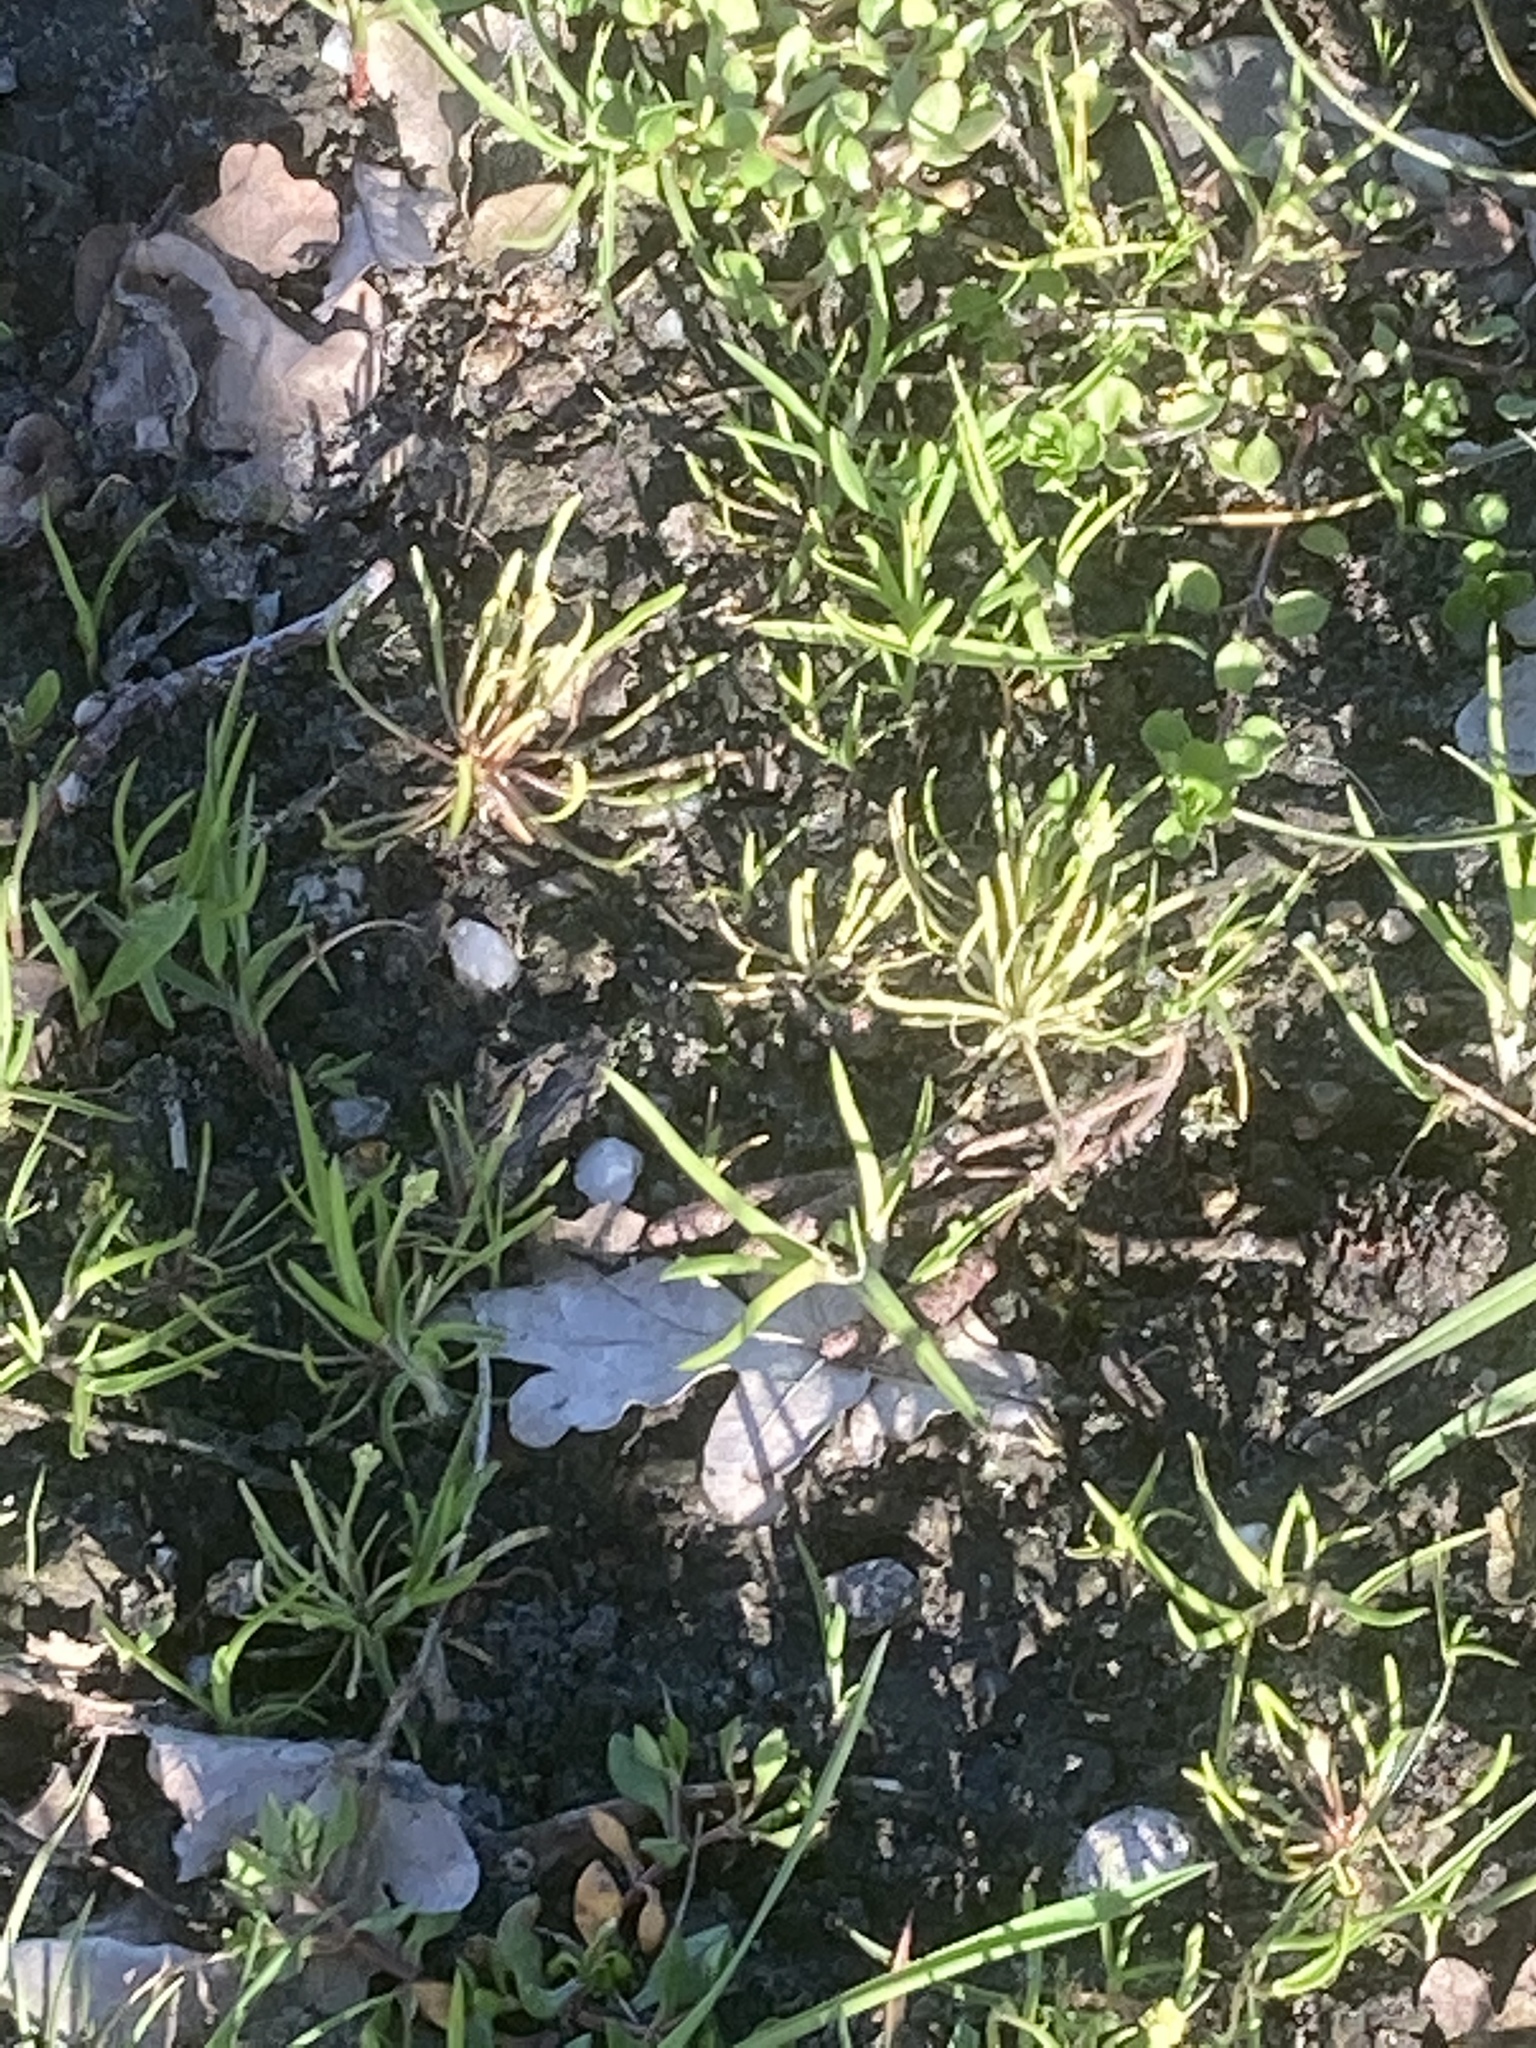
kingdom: Plantae
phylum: Tracheophyta
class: Magnoliopsida
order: Ranunculales
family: Ranunculaceae
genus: Myosurus
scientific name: Myosurus minimus
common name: Mousetail
